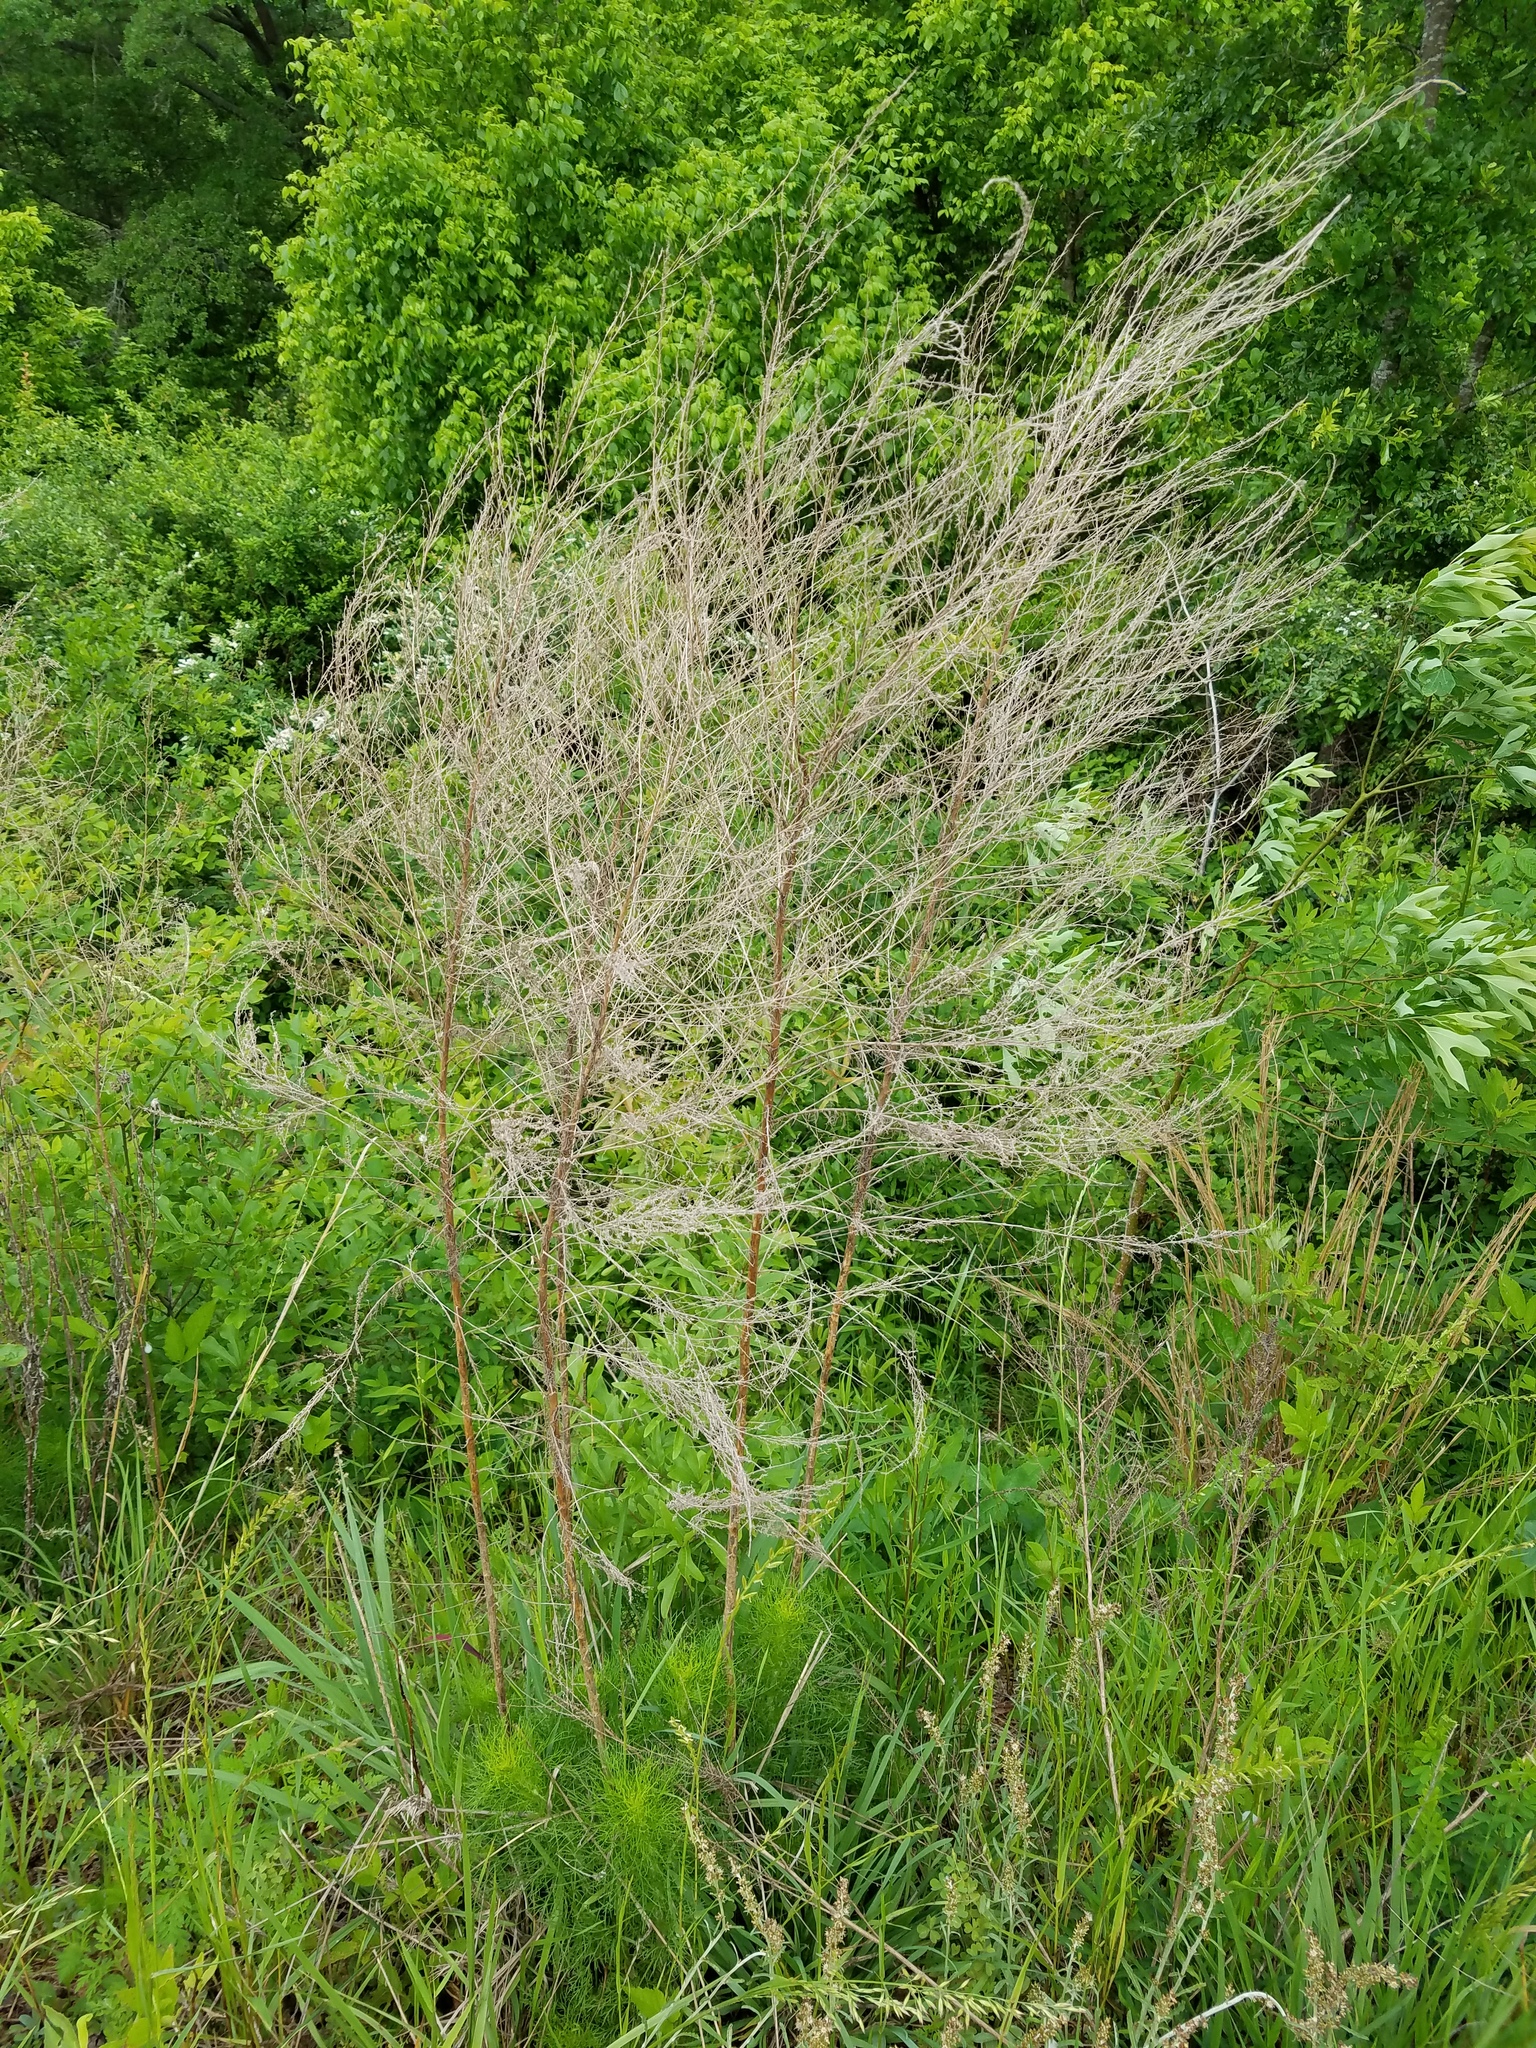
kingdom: Plantae
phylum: Tracheophyta
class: Magnoliopsida
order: Asterales
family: Asteraceae
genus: Eupatorium
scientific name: Eupatorium capillifolium
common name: Dog-fennel
